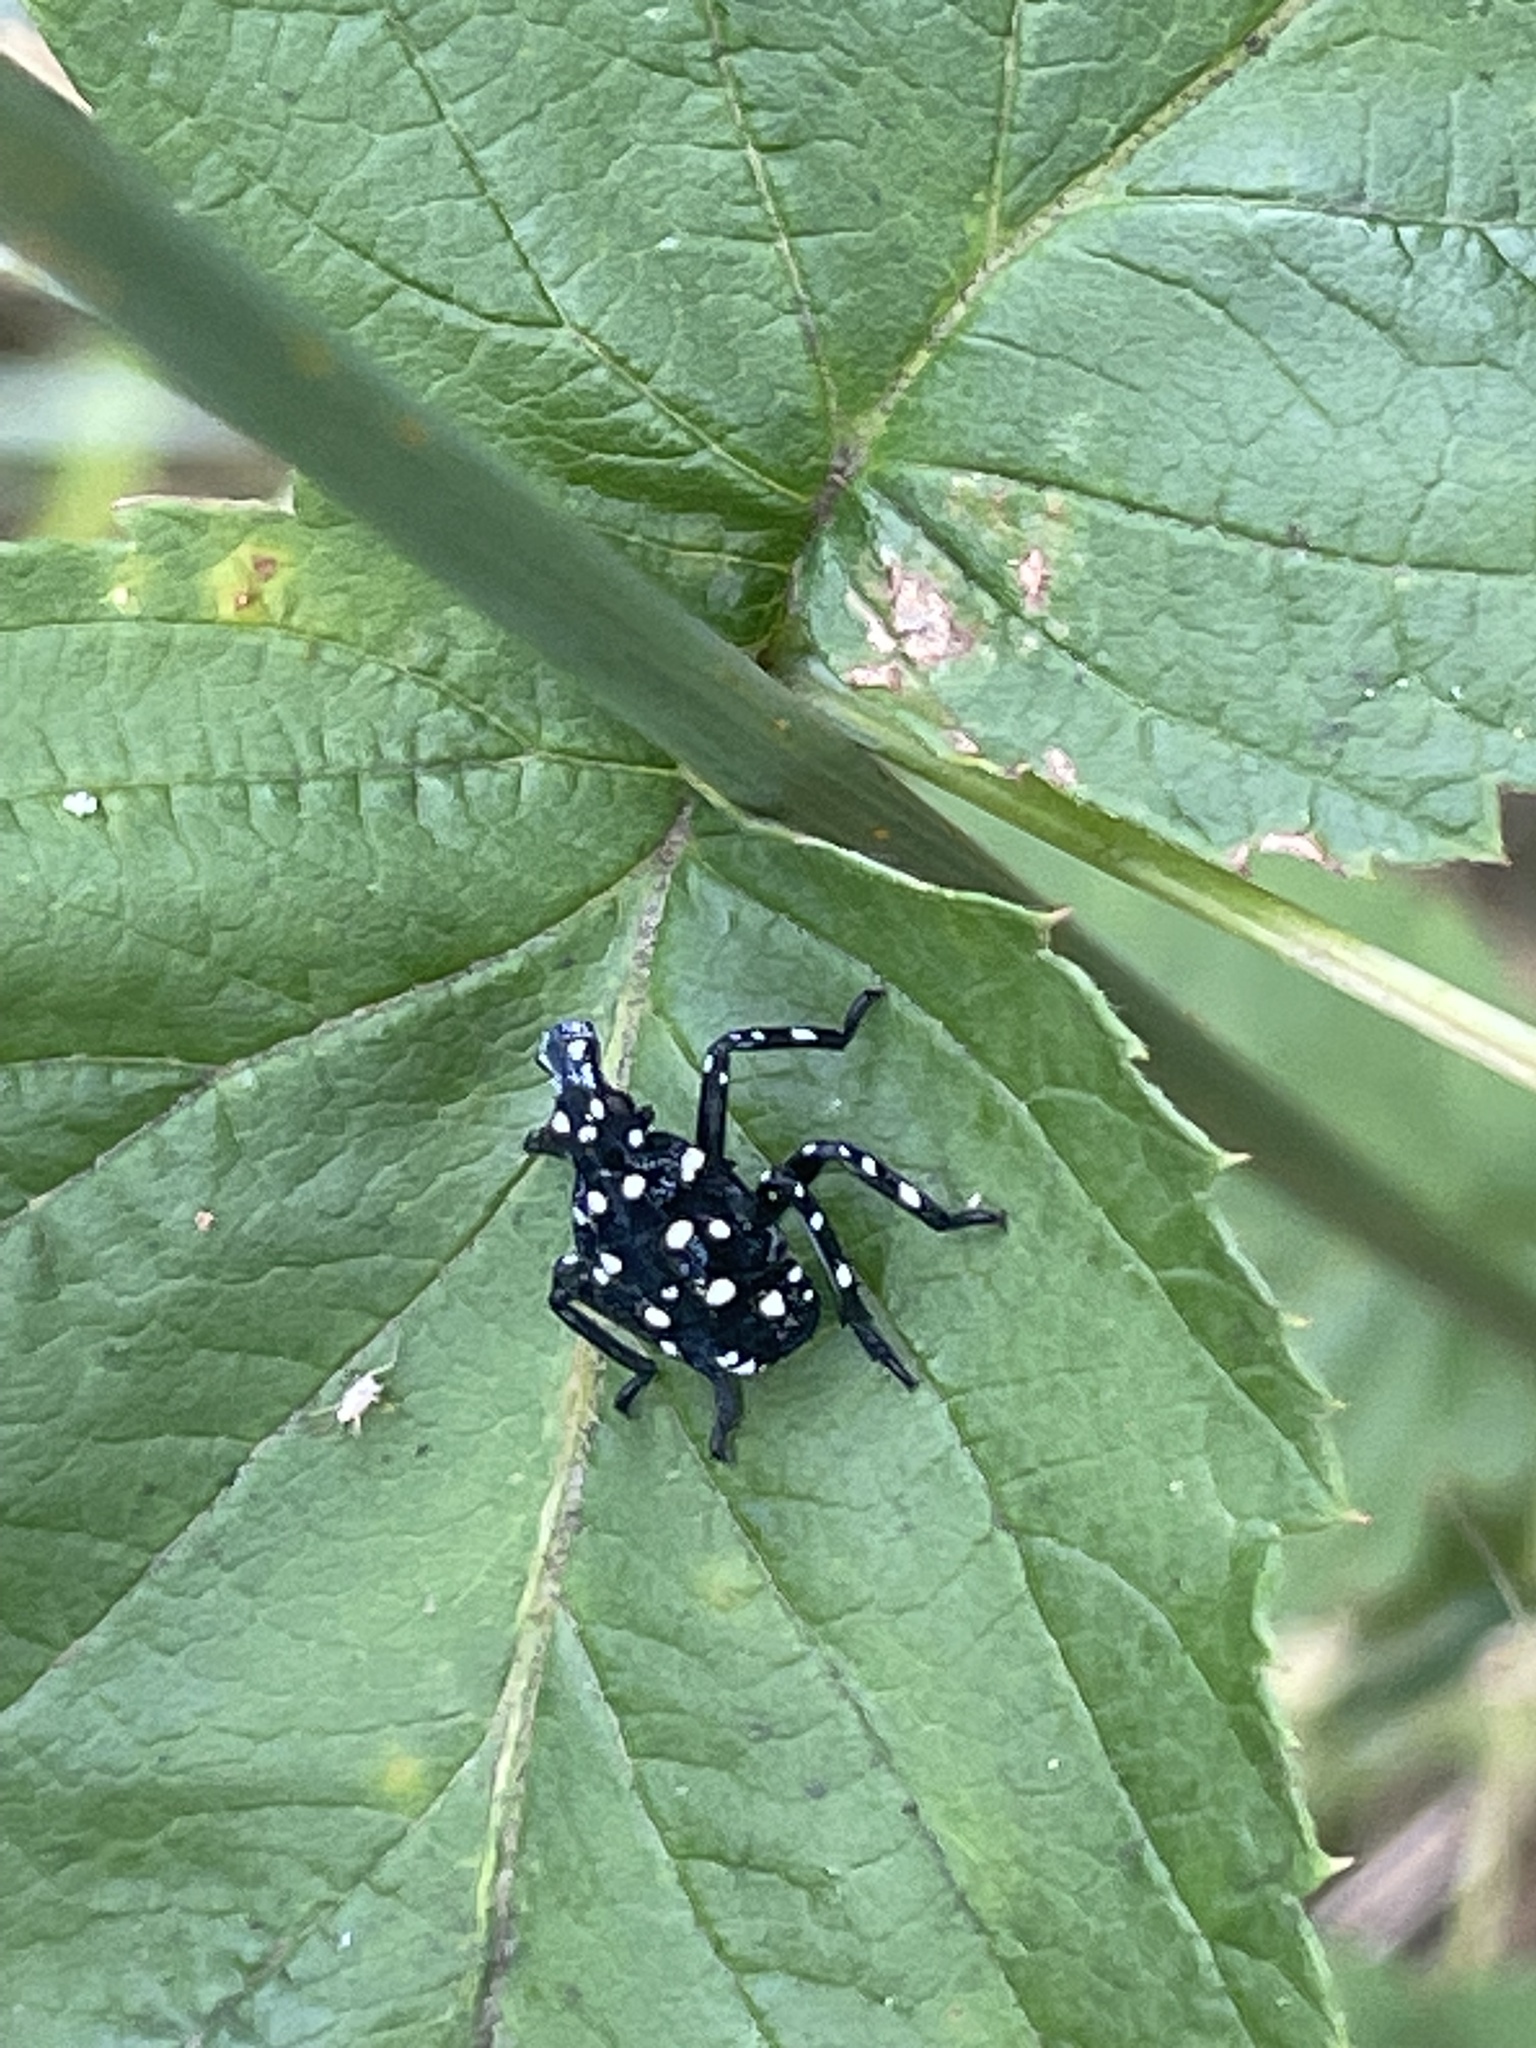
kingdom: Animalia
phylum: Arthropoda
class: Insecta
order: Hemiptera
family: Fulgoridae
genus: Lycorma
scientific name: Lycorma delicatula
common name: Spotted lanternfly
